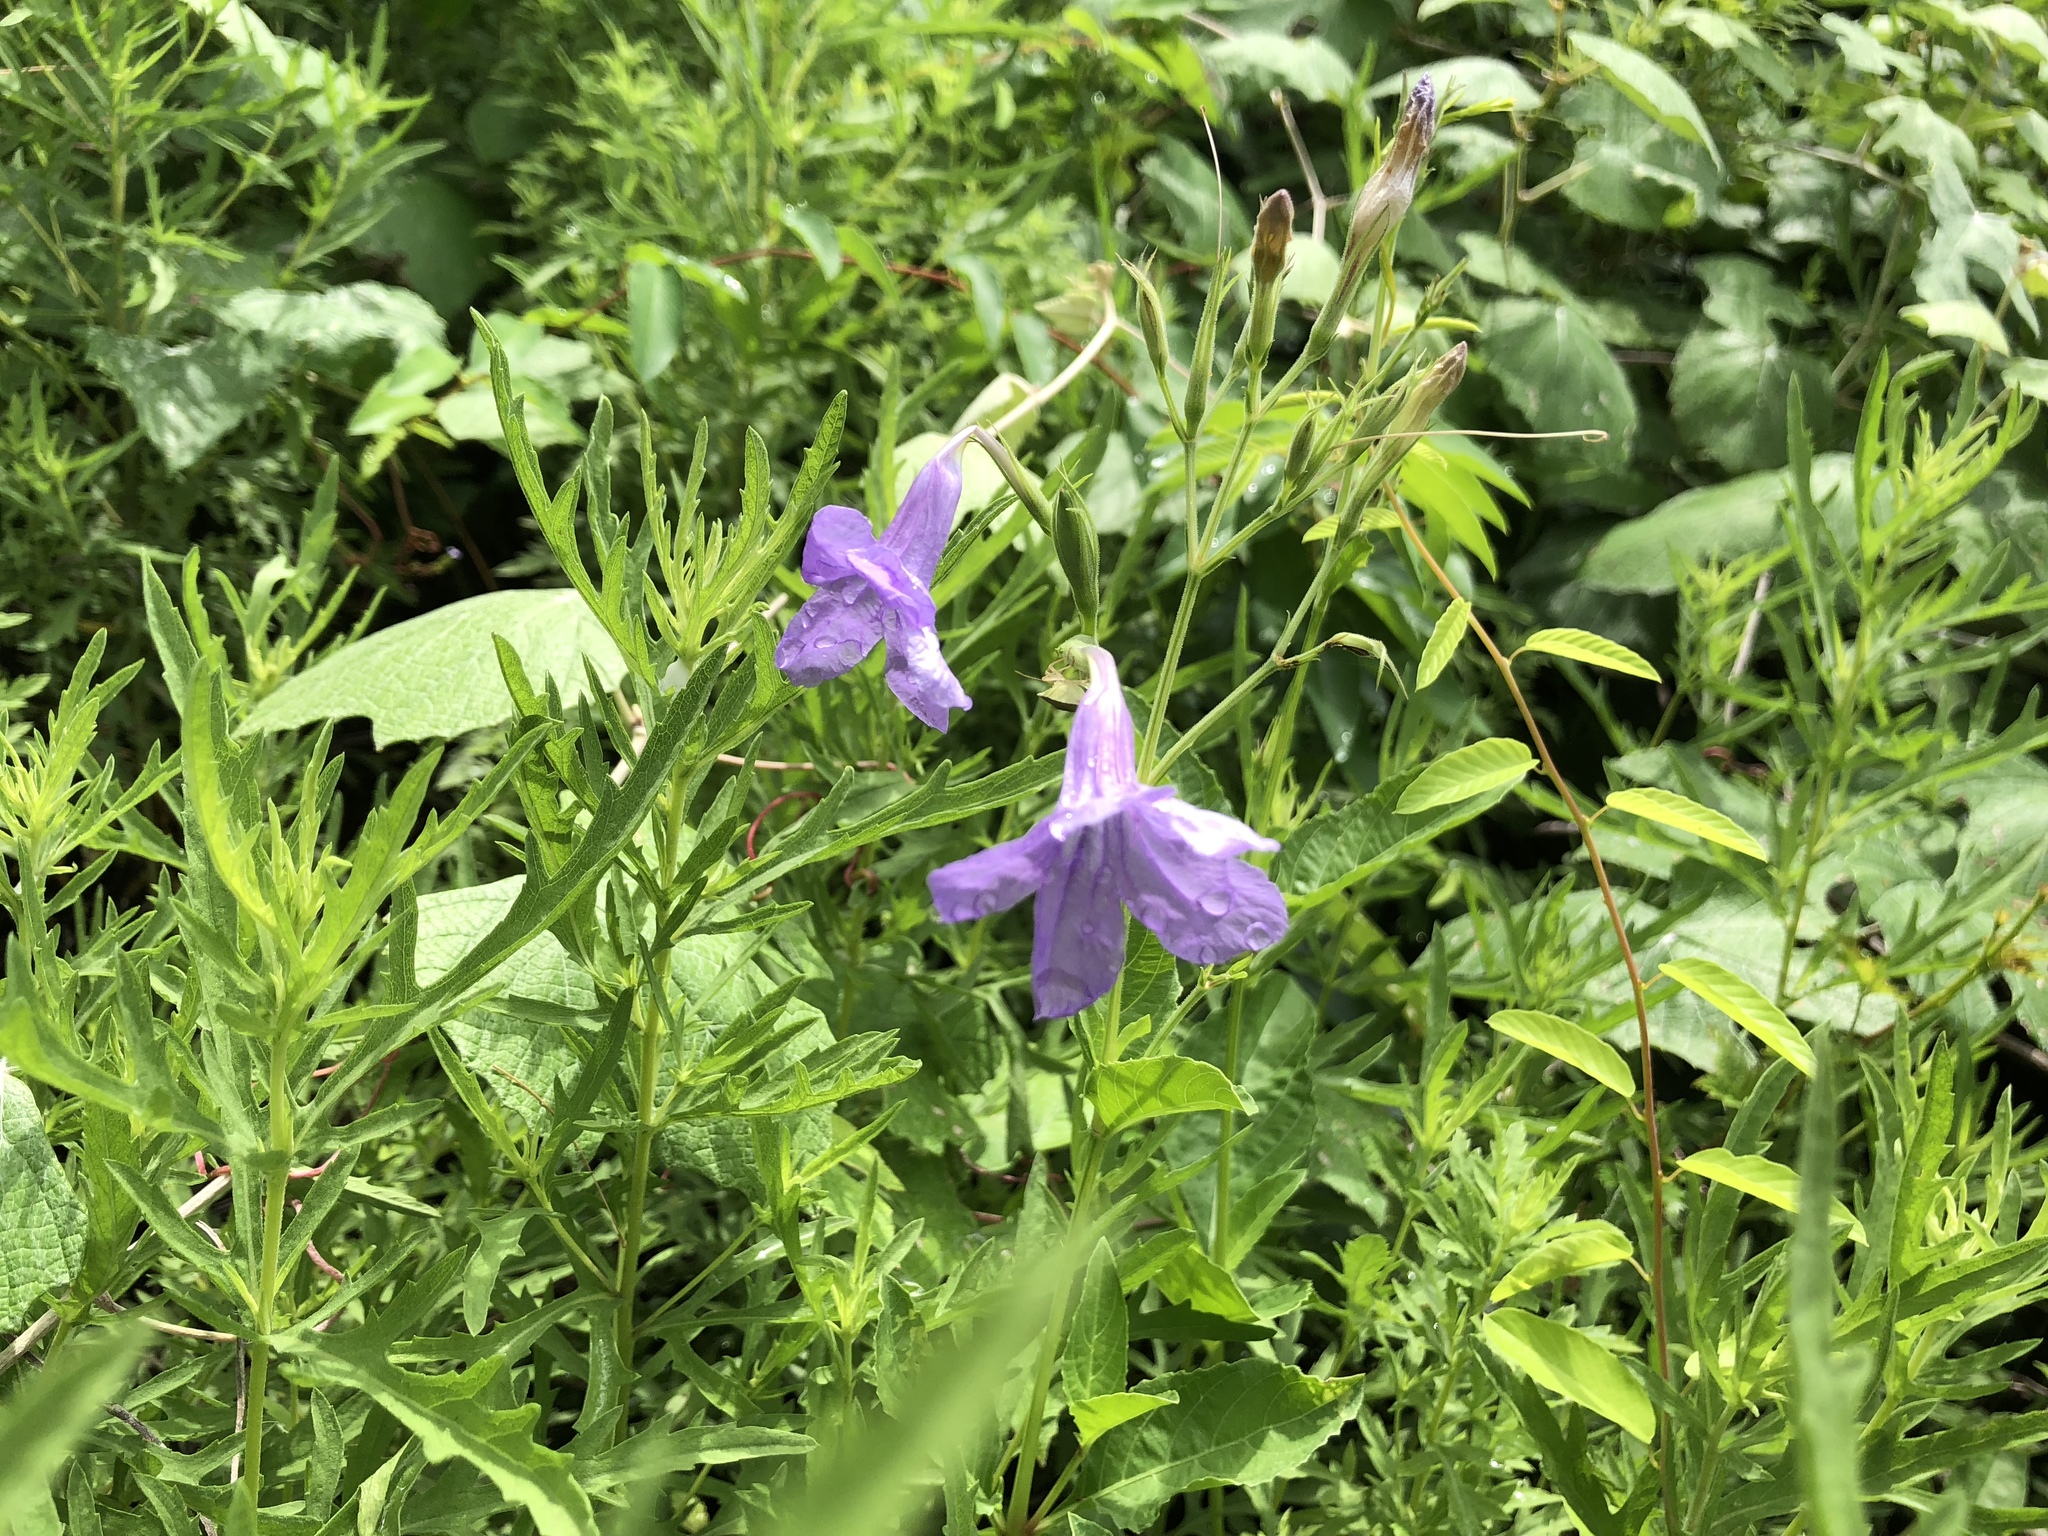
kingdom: Plantae
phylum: Tracheophyta
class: Magnoliopsida
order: Lamiales
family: Acanthaceae
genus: Ruellia
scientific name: Ruellia ciliatiflora
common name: Hairyflower wild petunia
